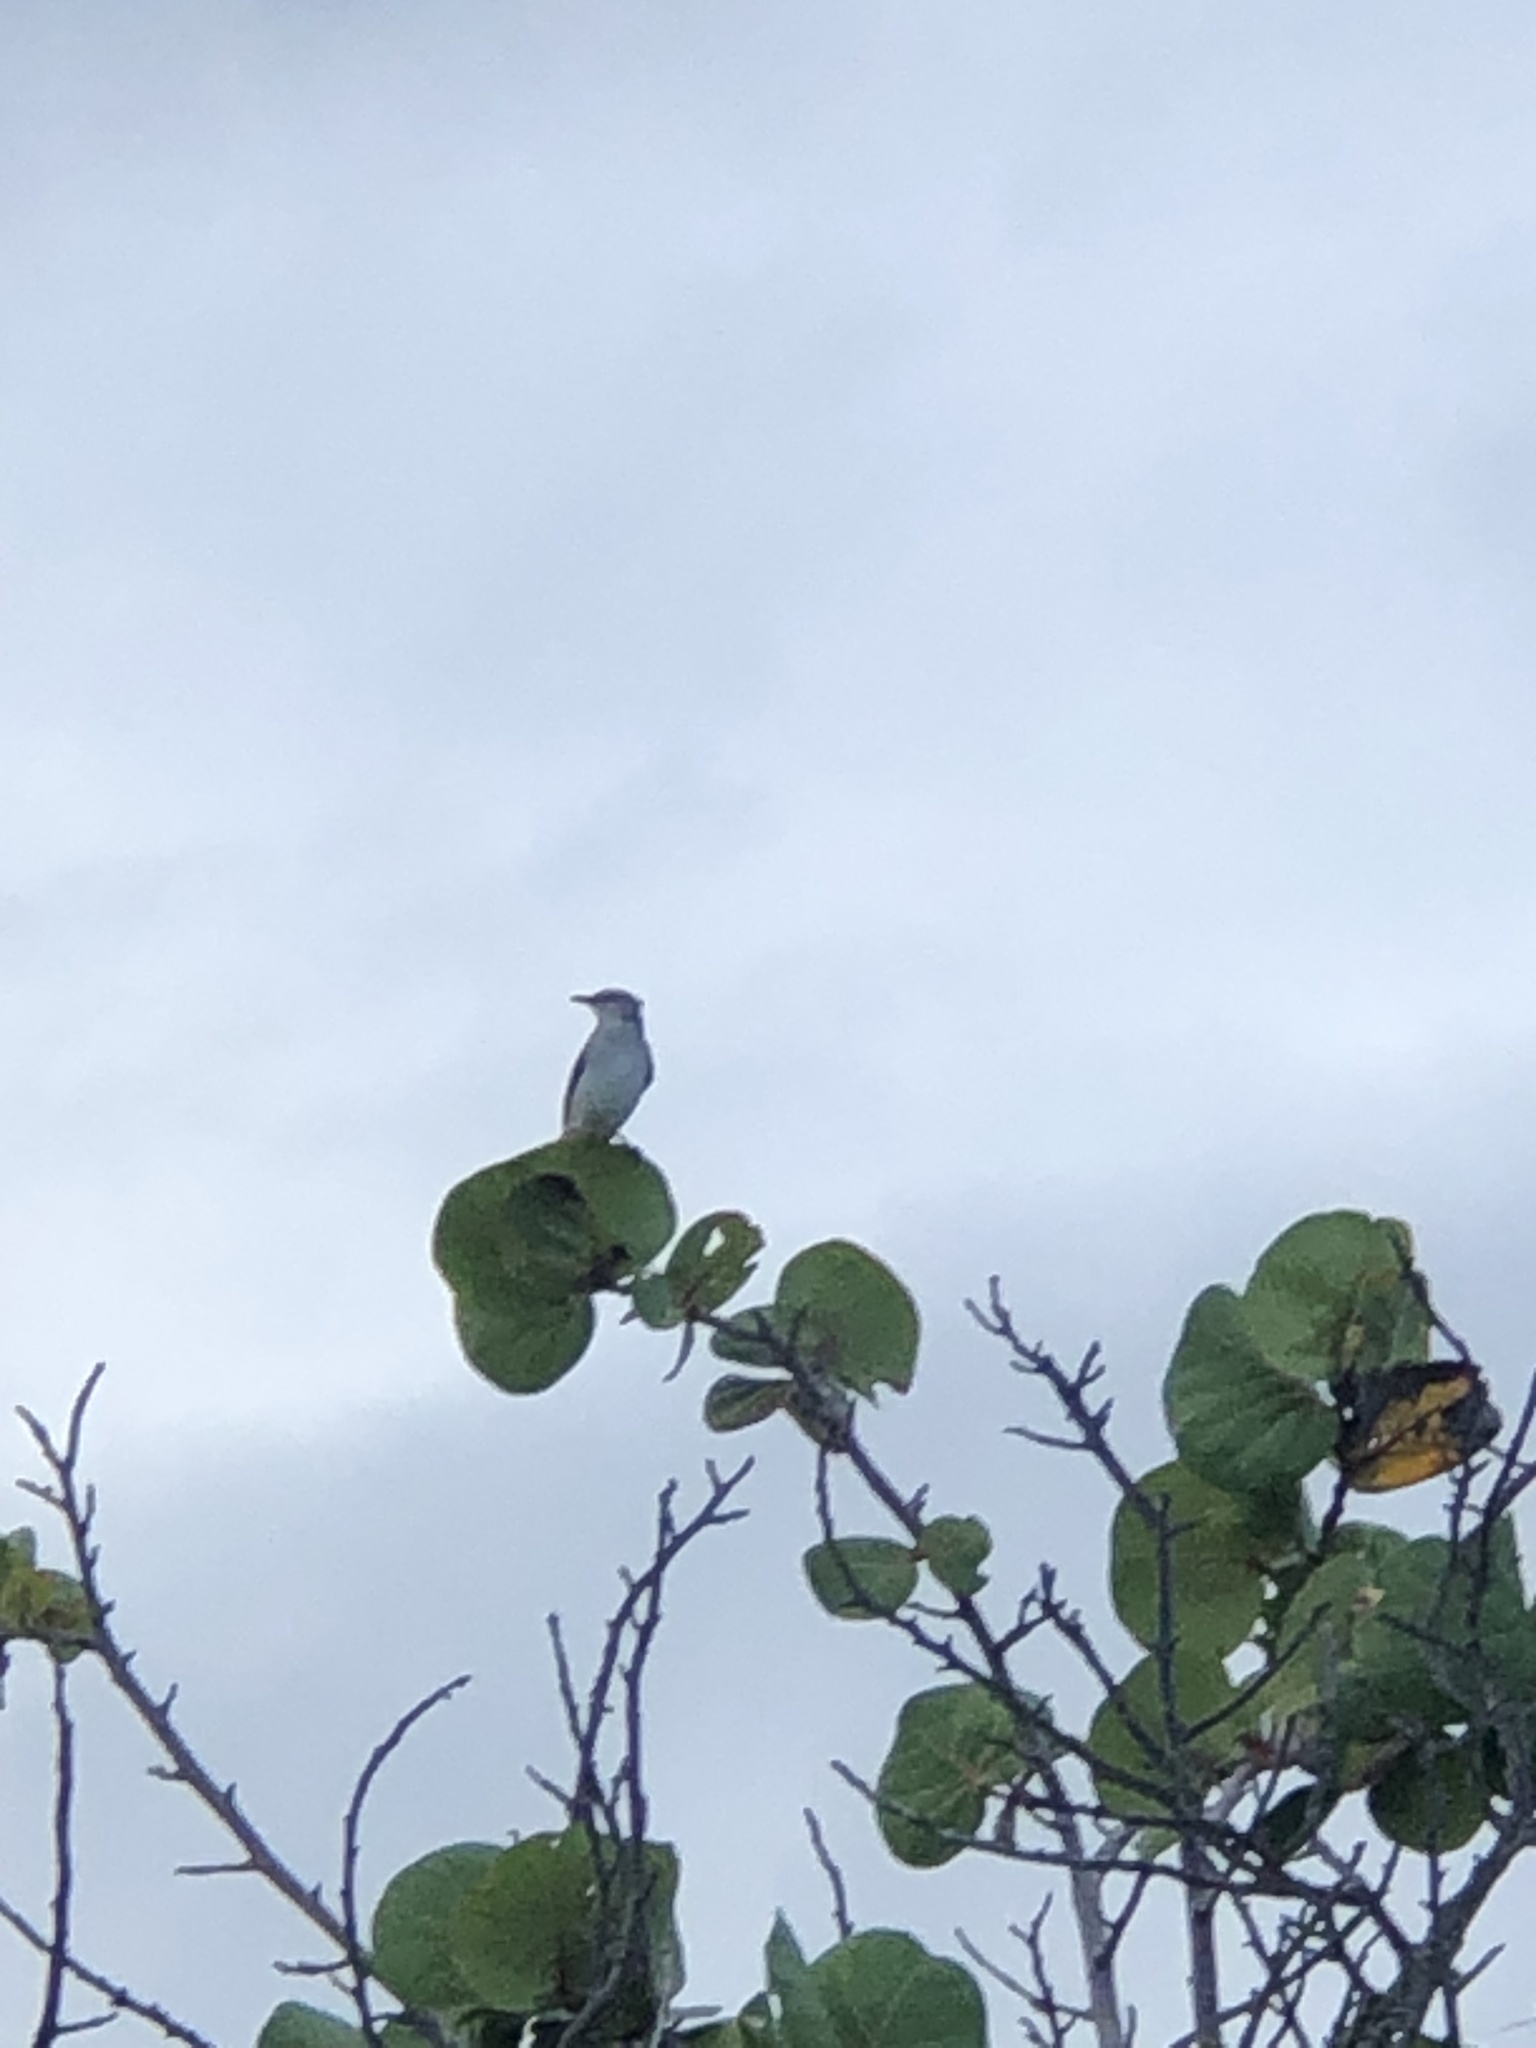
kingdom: Animalia
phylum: Chordata
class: Aves
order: Passeriformes
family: Mimidae
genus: Mimus
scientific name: Mimus gilvus
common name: Tropical mockingbird
